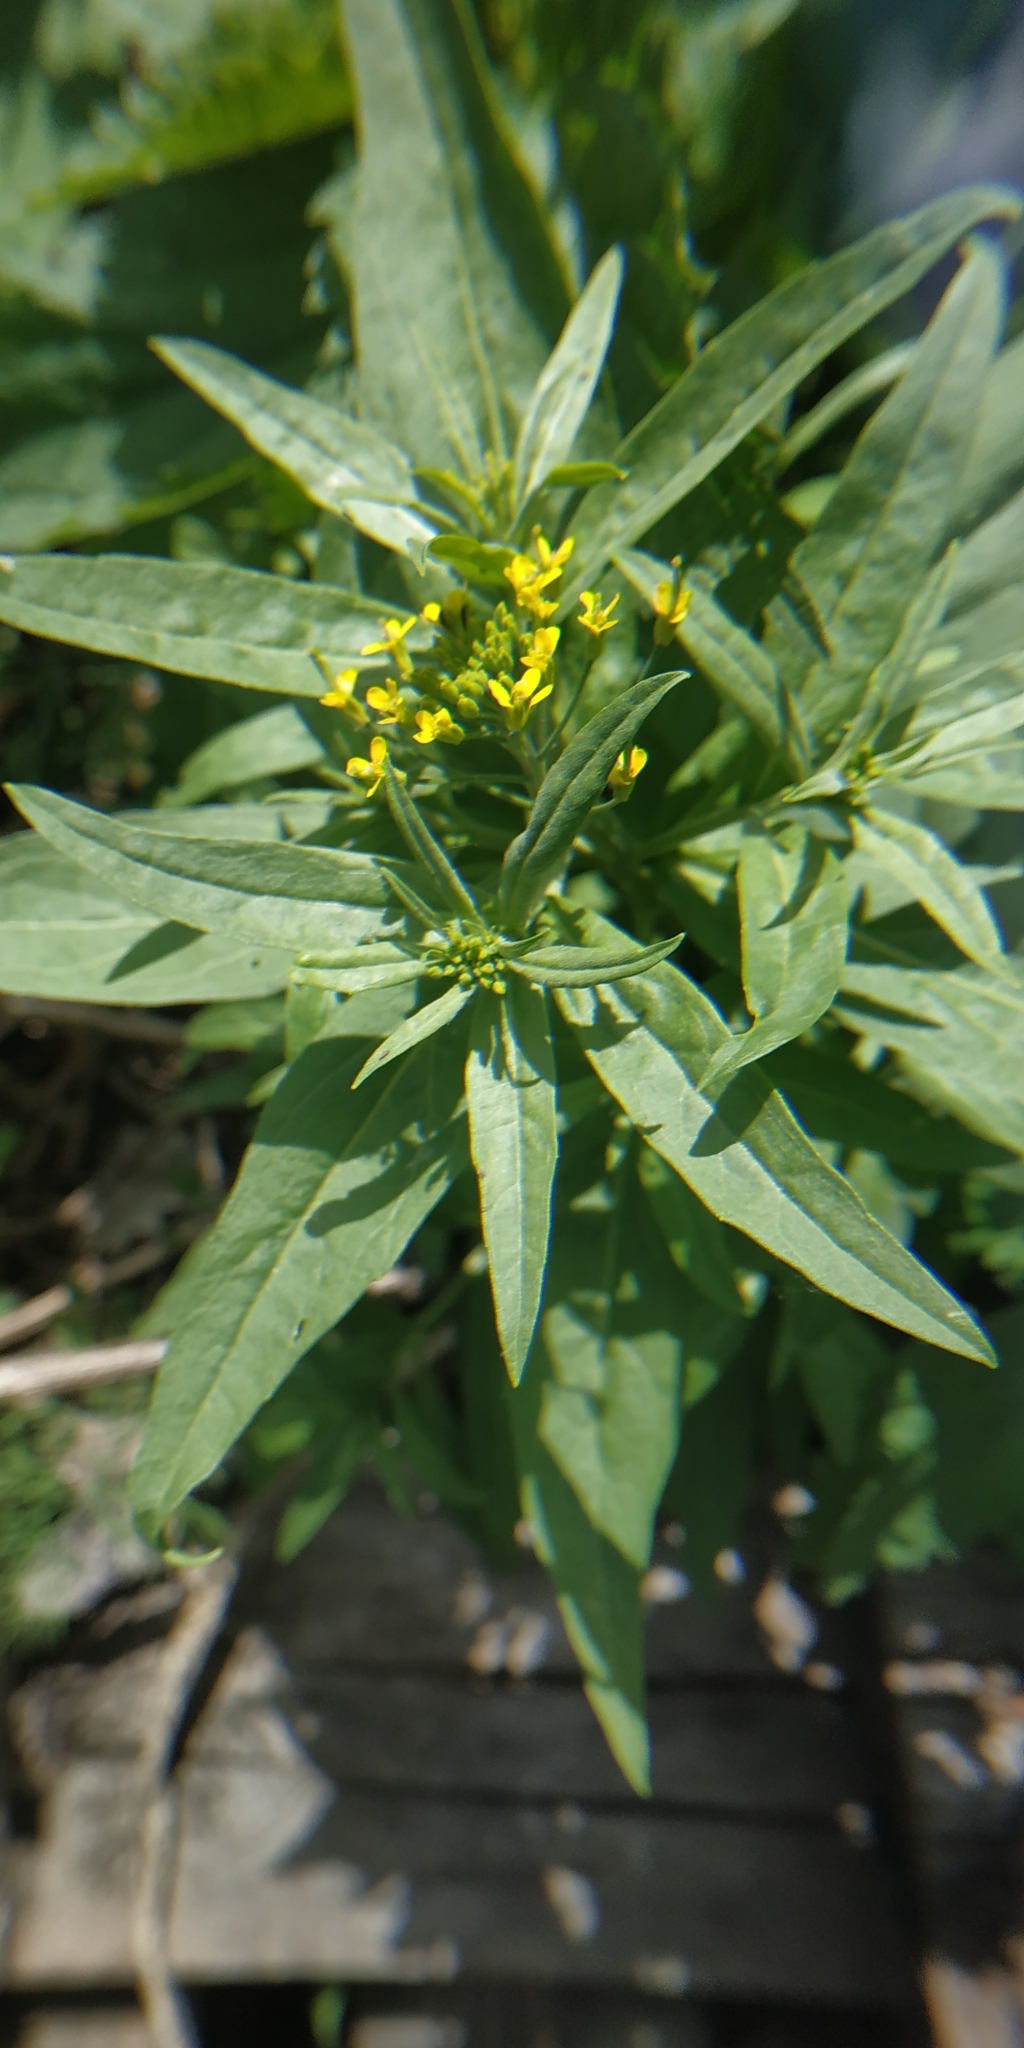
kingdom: Plantae
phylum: Tracheophyta
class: Magnoliopsida
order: Brassicales
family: Brassicaceae
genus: Erysimum
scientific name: Erysimum cheiranthoides
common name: Treacle mustard
